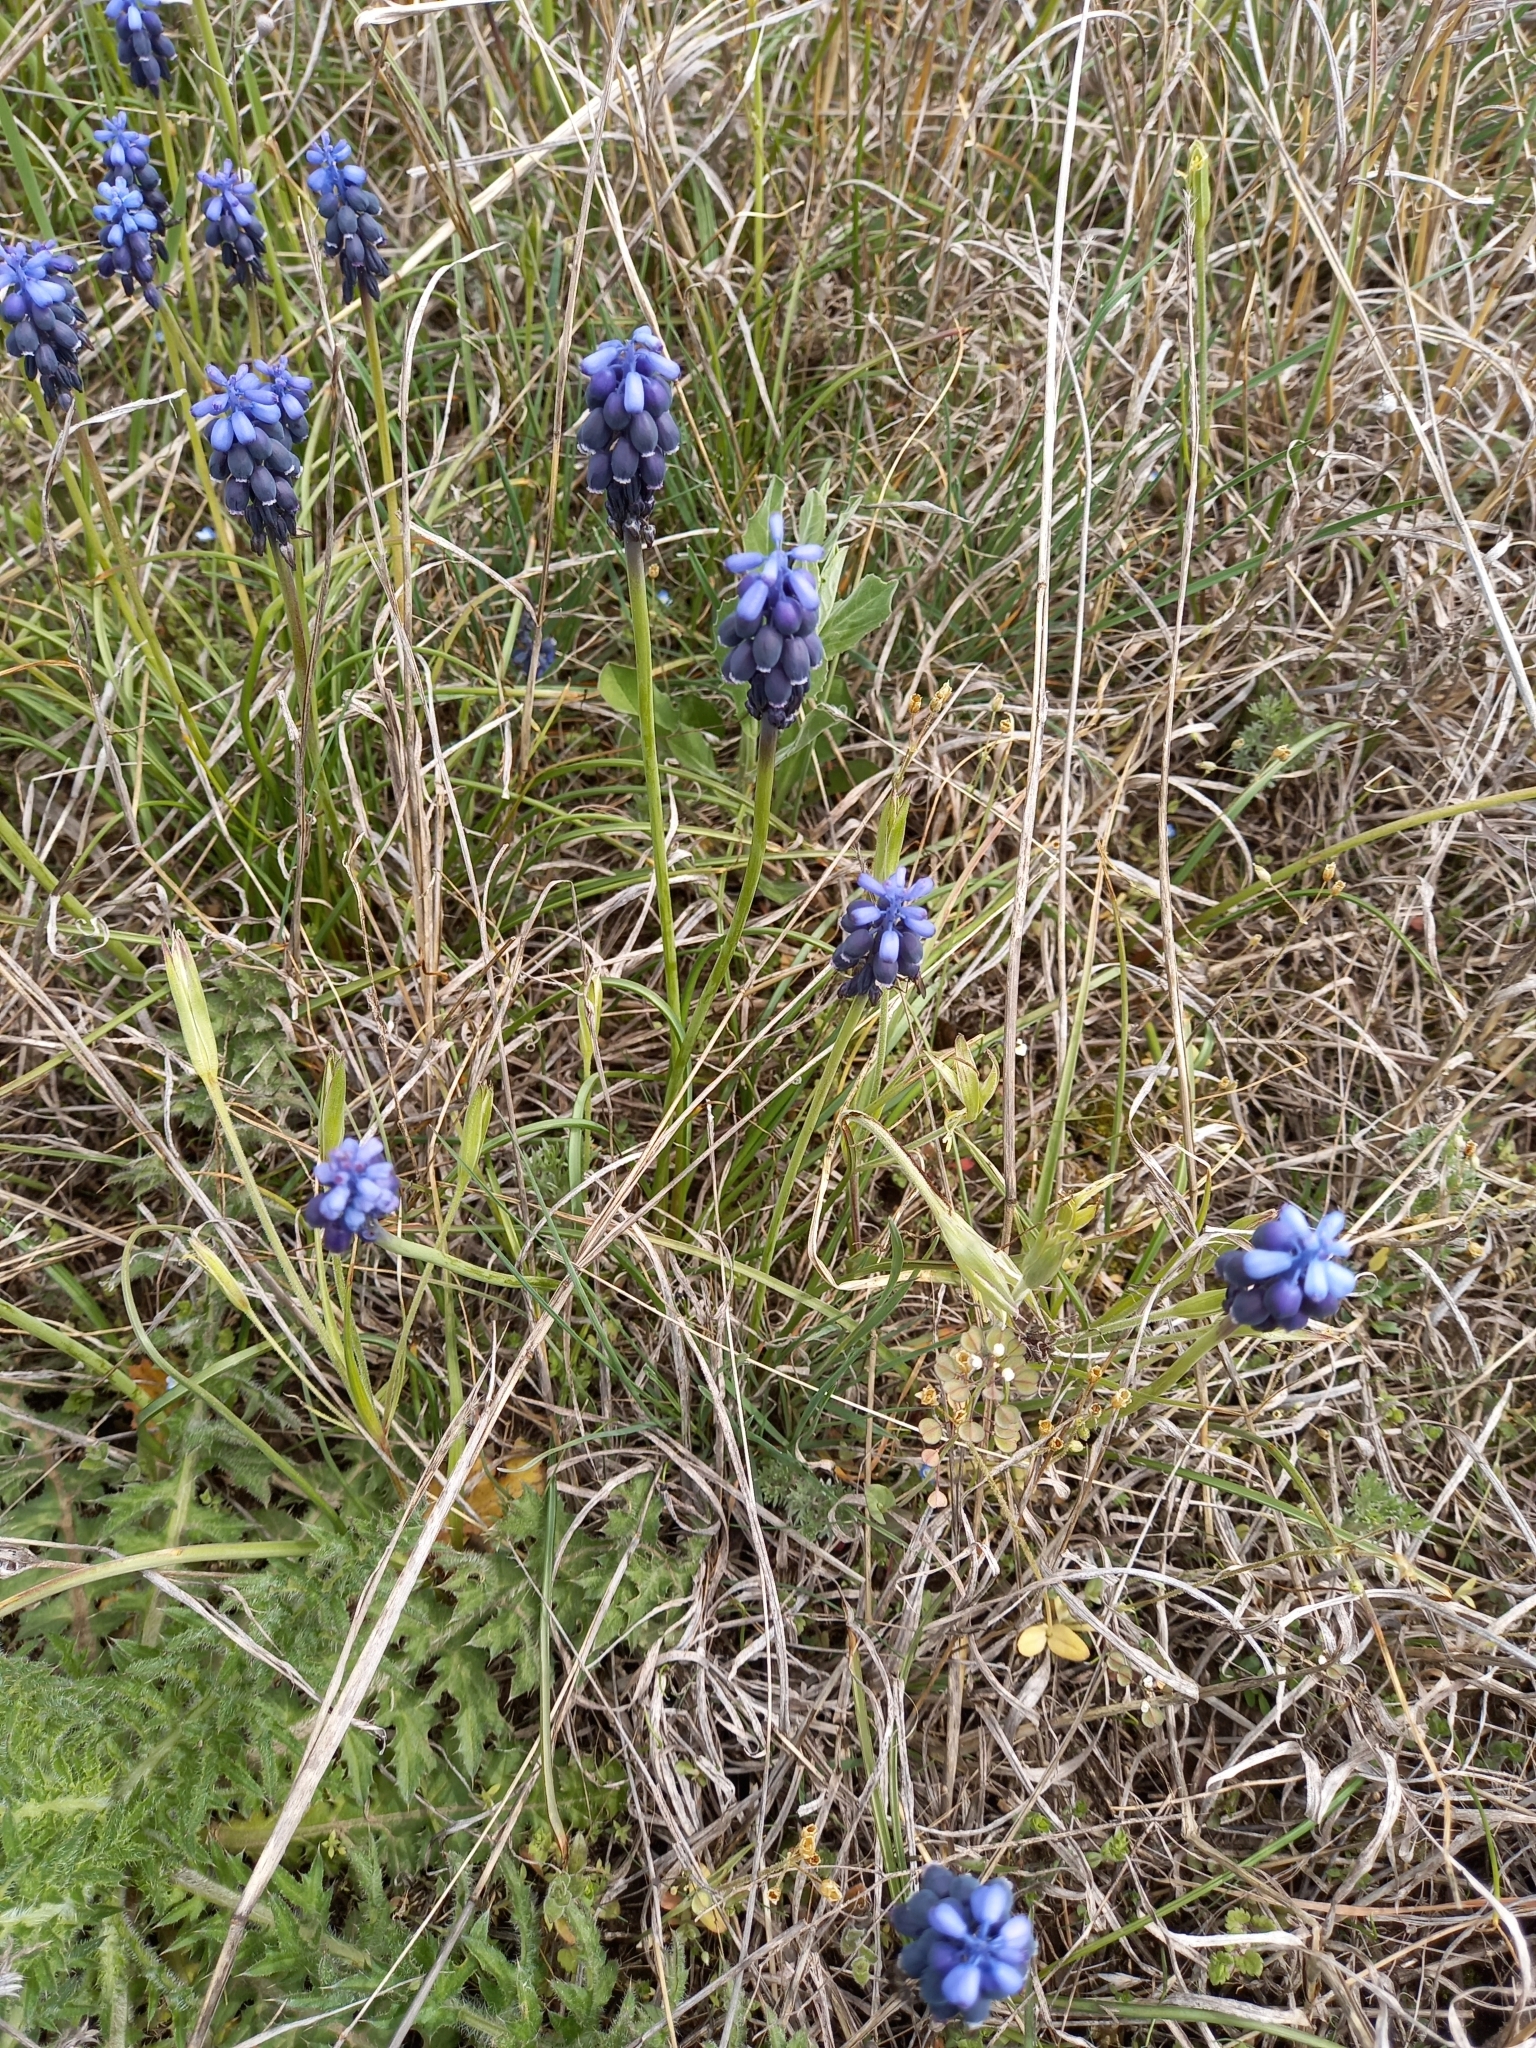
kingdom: Plantae
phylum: Tracheophyta
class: Liliopsida
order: Asparagales
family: Asparagaceae
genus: Muscari
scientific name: Muscari neglectum
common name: Grape-hyacinth
